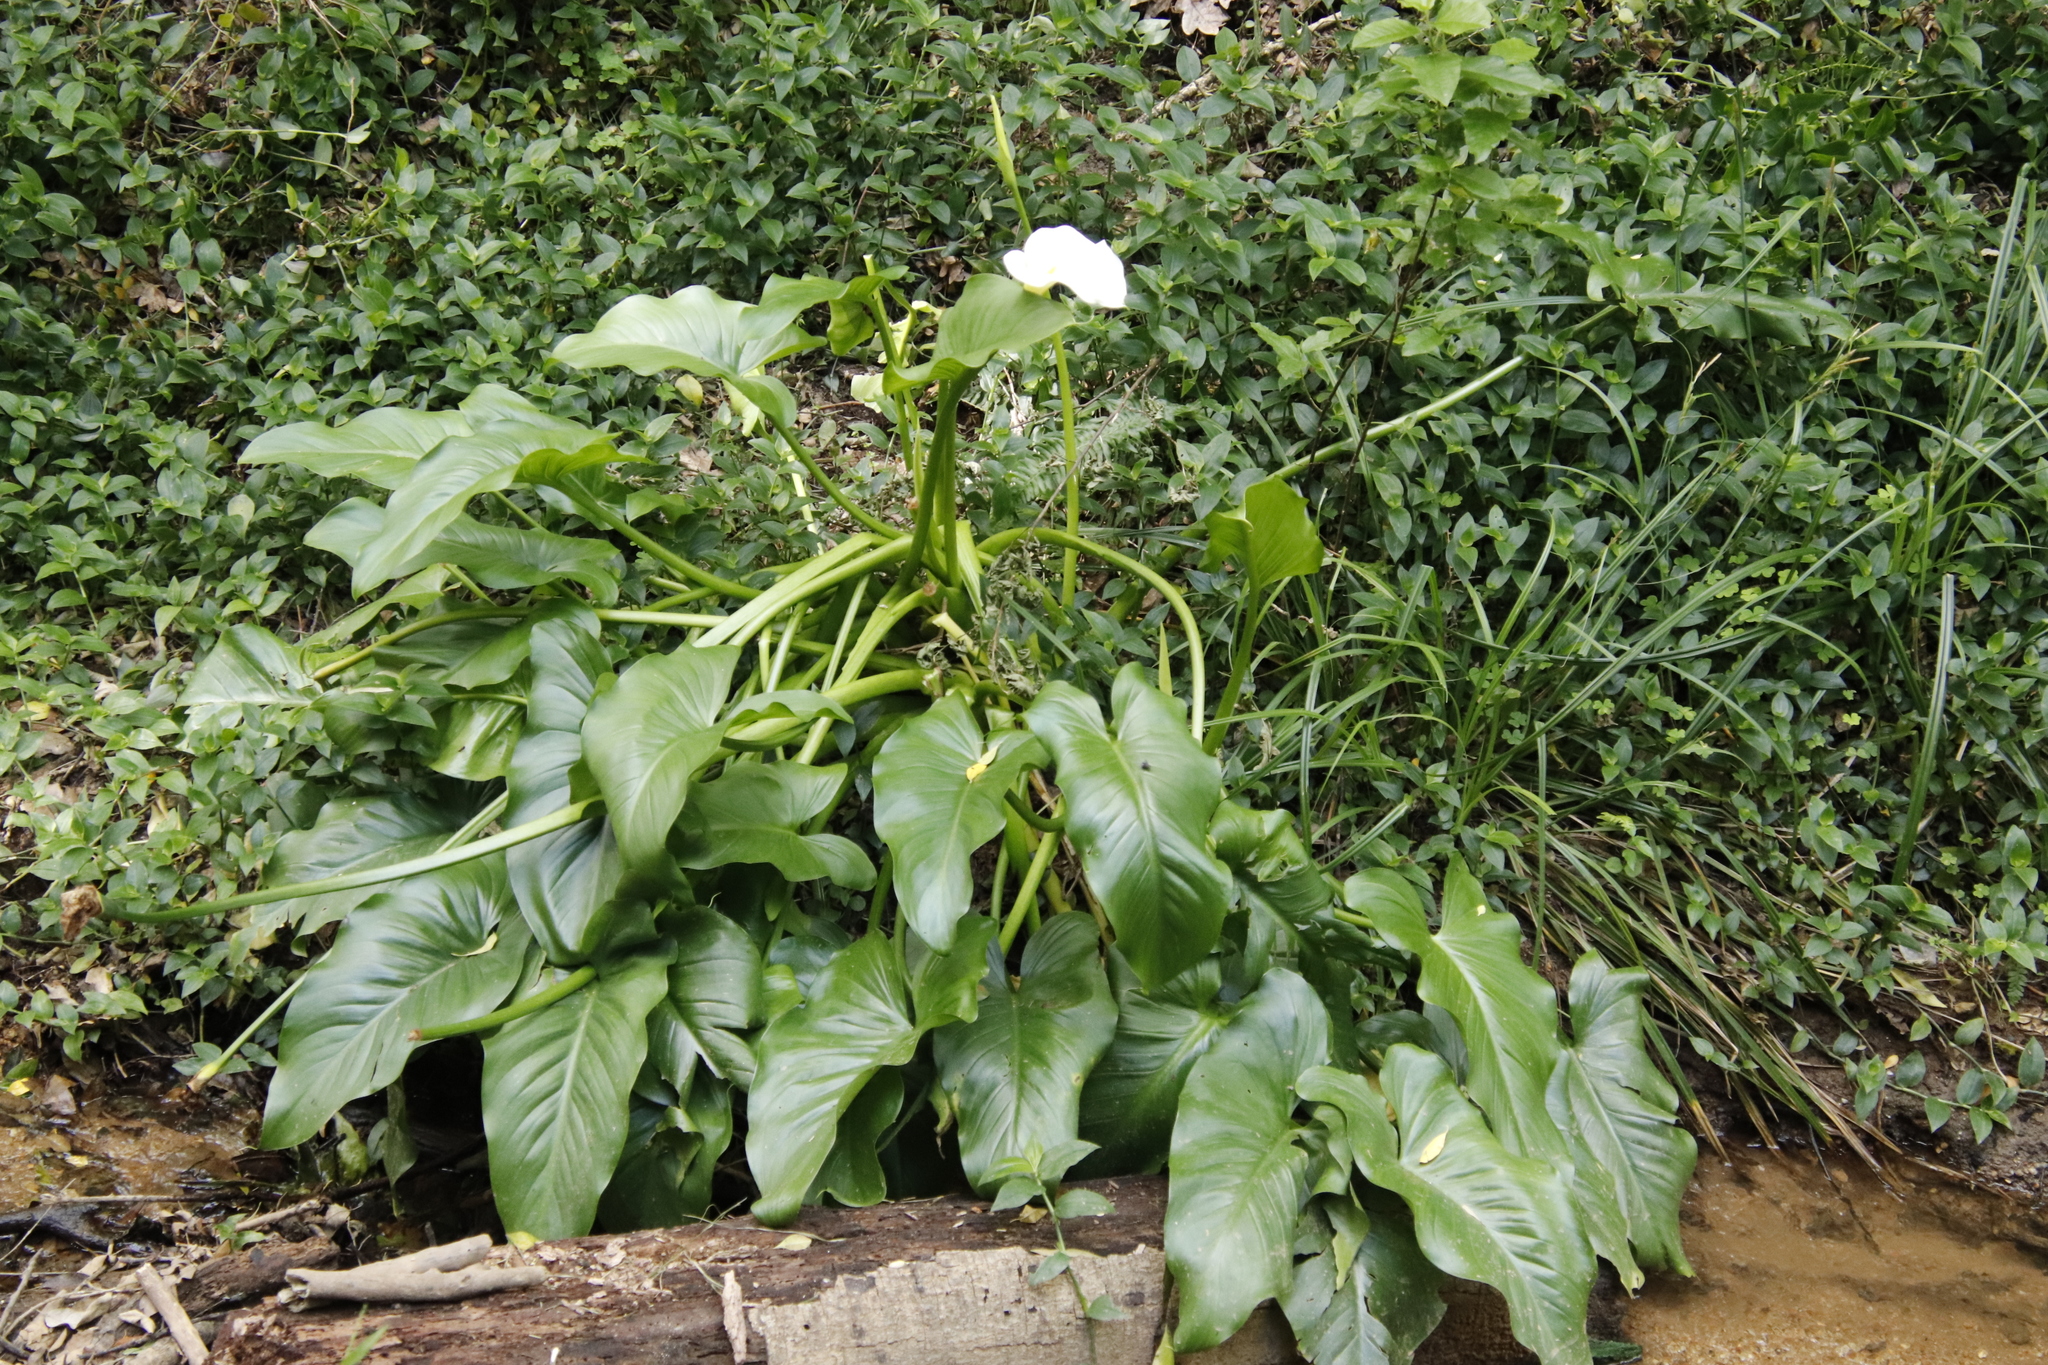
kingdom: Plantae
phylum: Tracheophyta
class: Liliopsida
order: Alismatales
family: Araceae
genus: Zantedeschia
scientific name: Zantedeschia aethiopica
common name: Altar-lily
